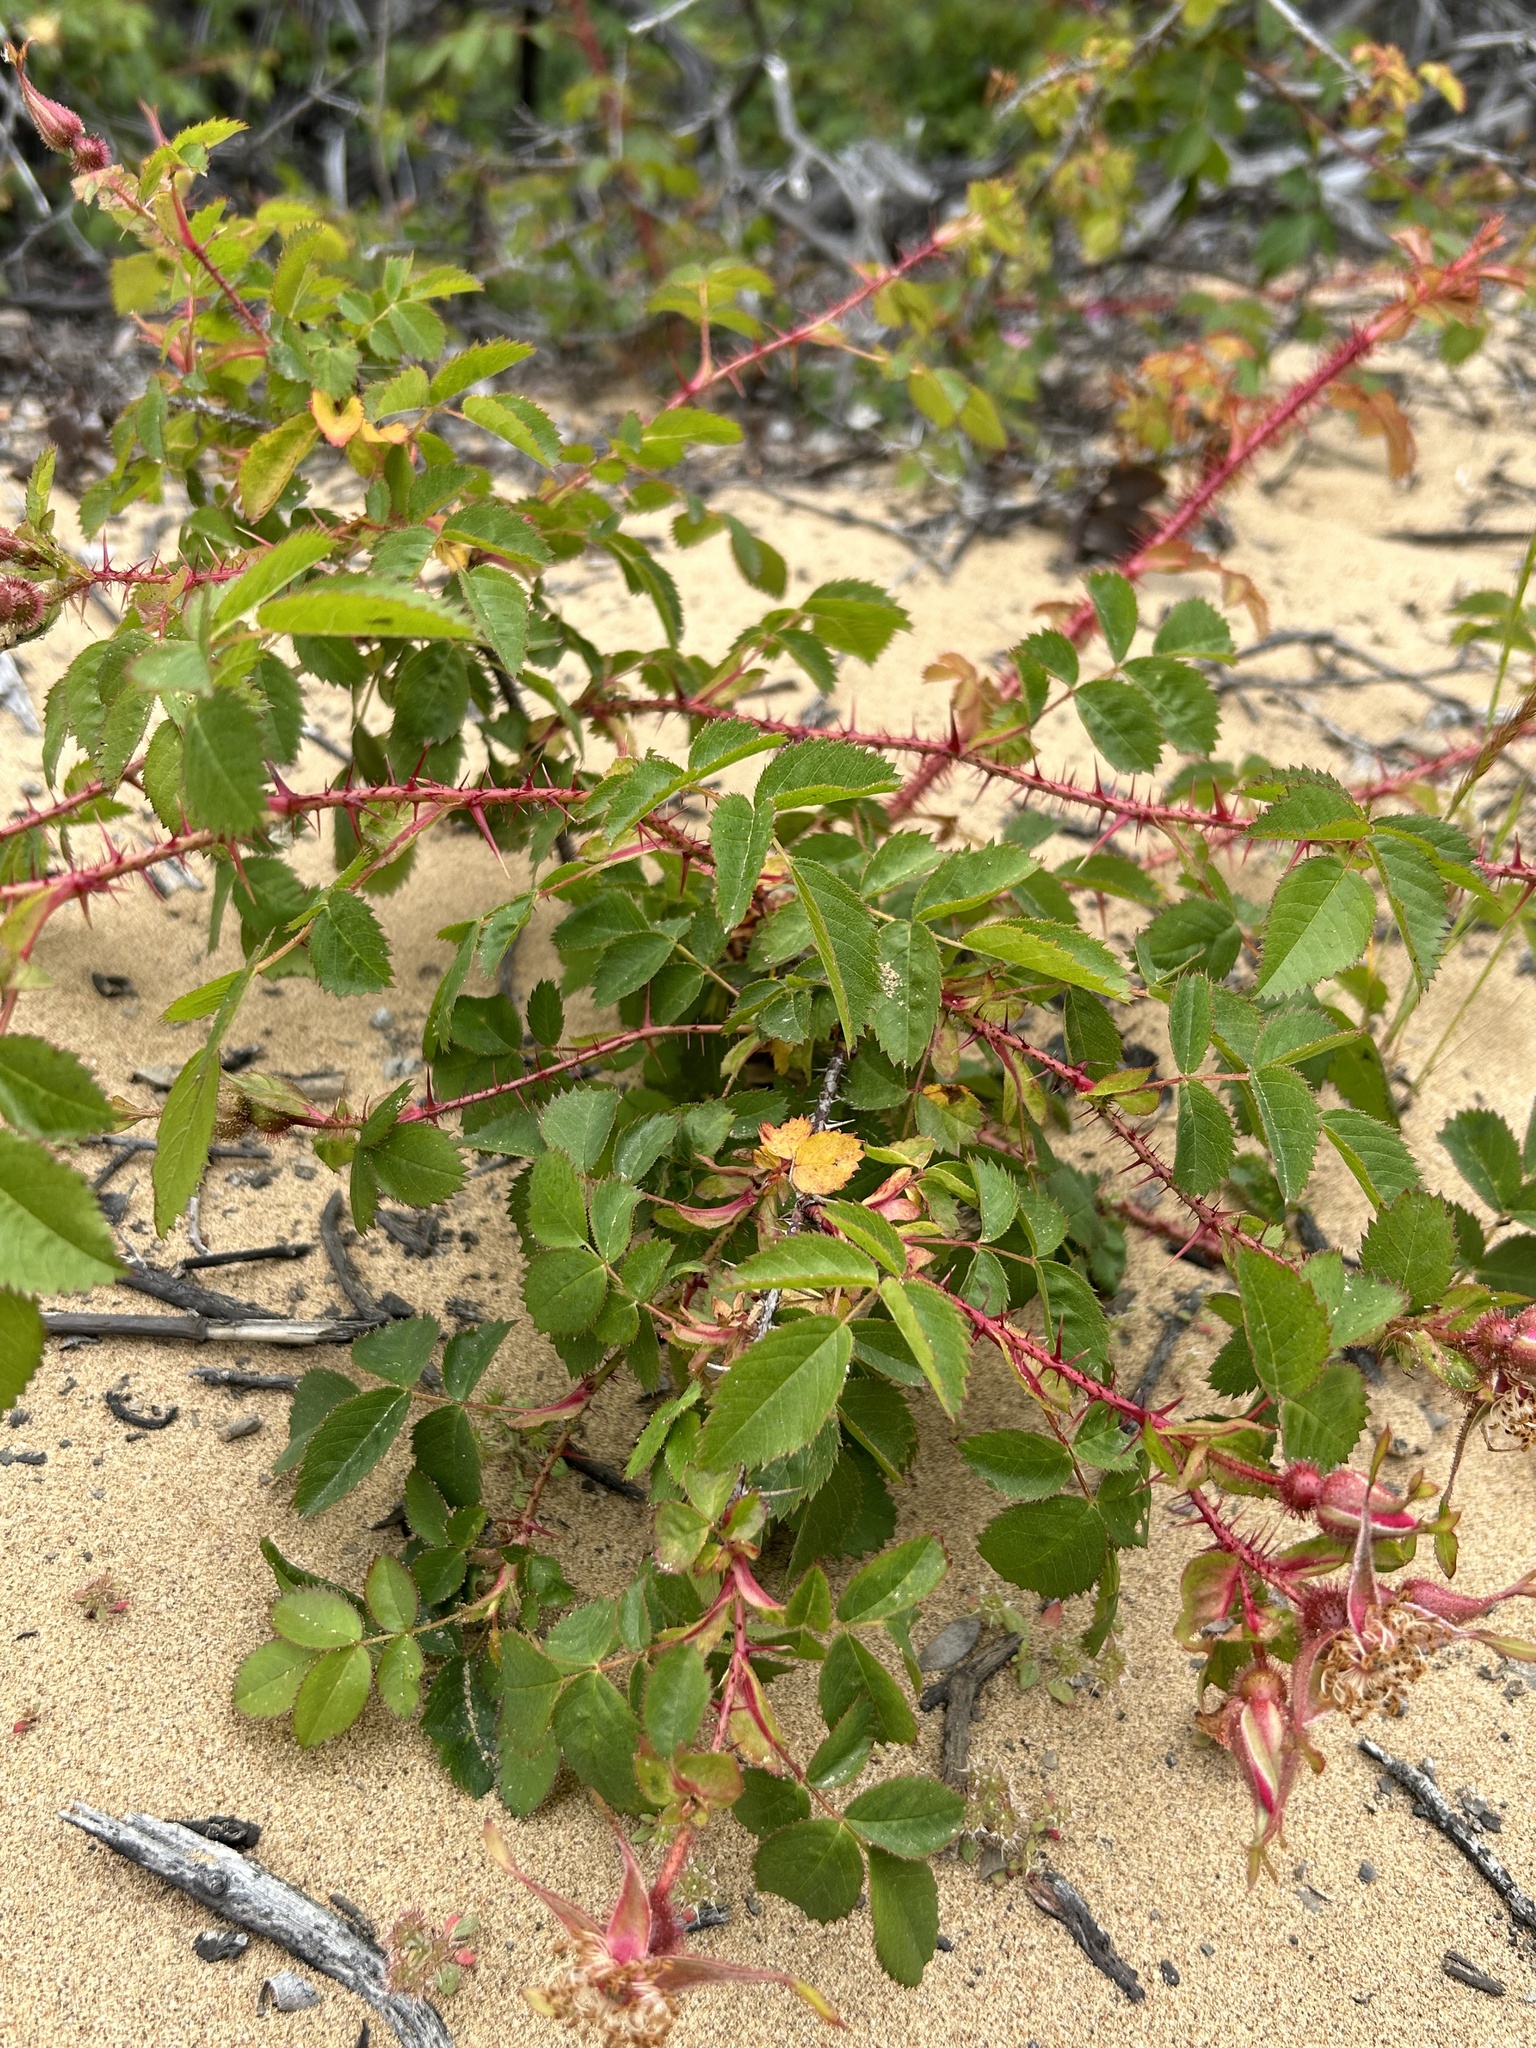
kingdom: Plantae
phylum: Tracheophyta
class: Magnoliopsida
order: Rosales
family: Rosaceae
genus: Rosa
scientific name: Rosa spithamea
